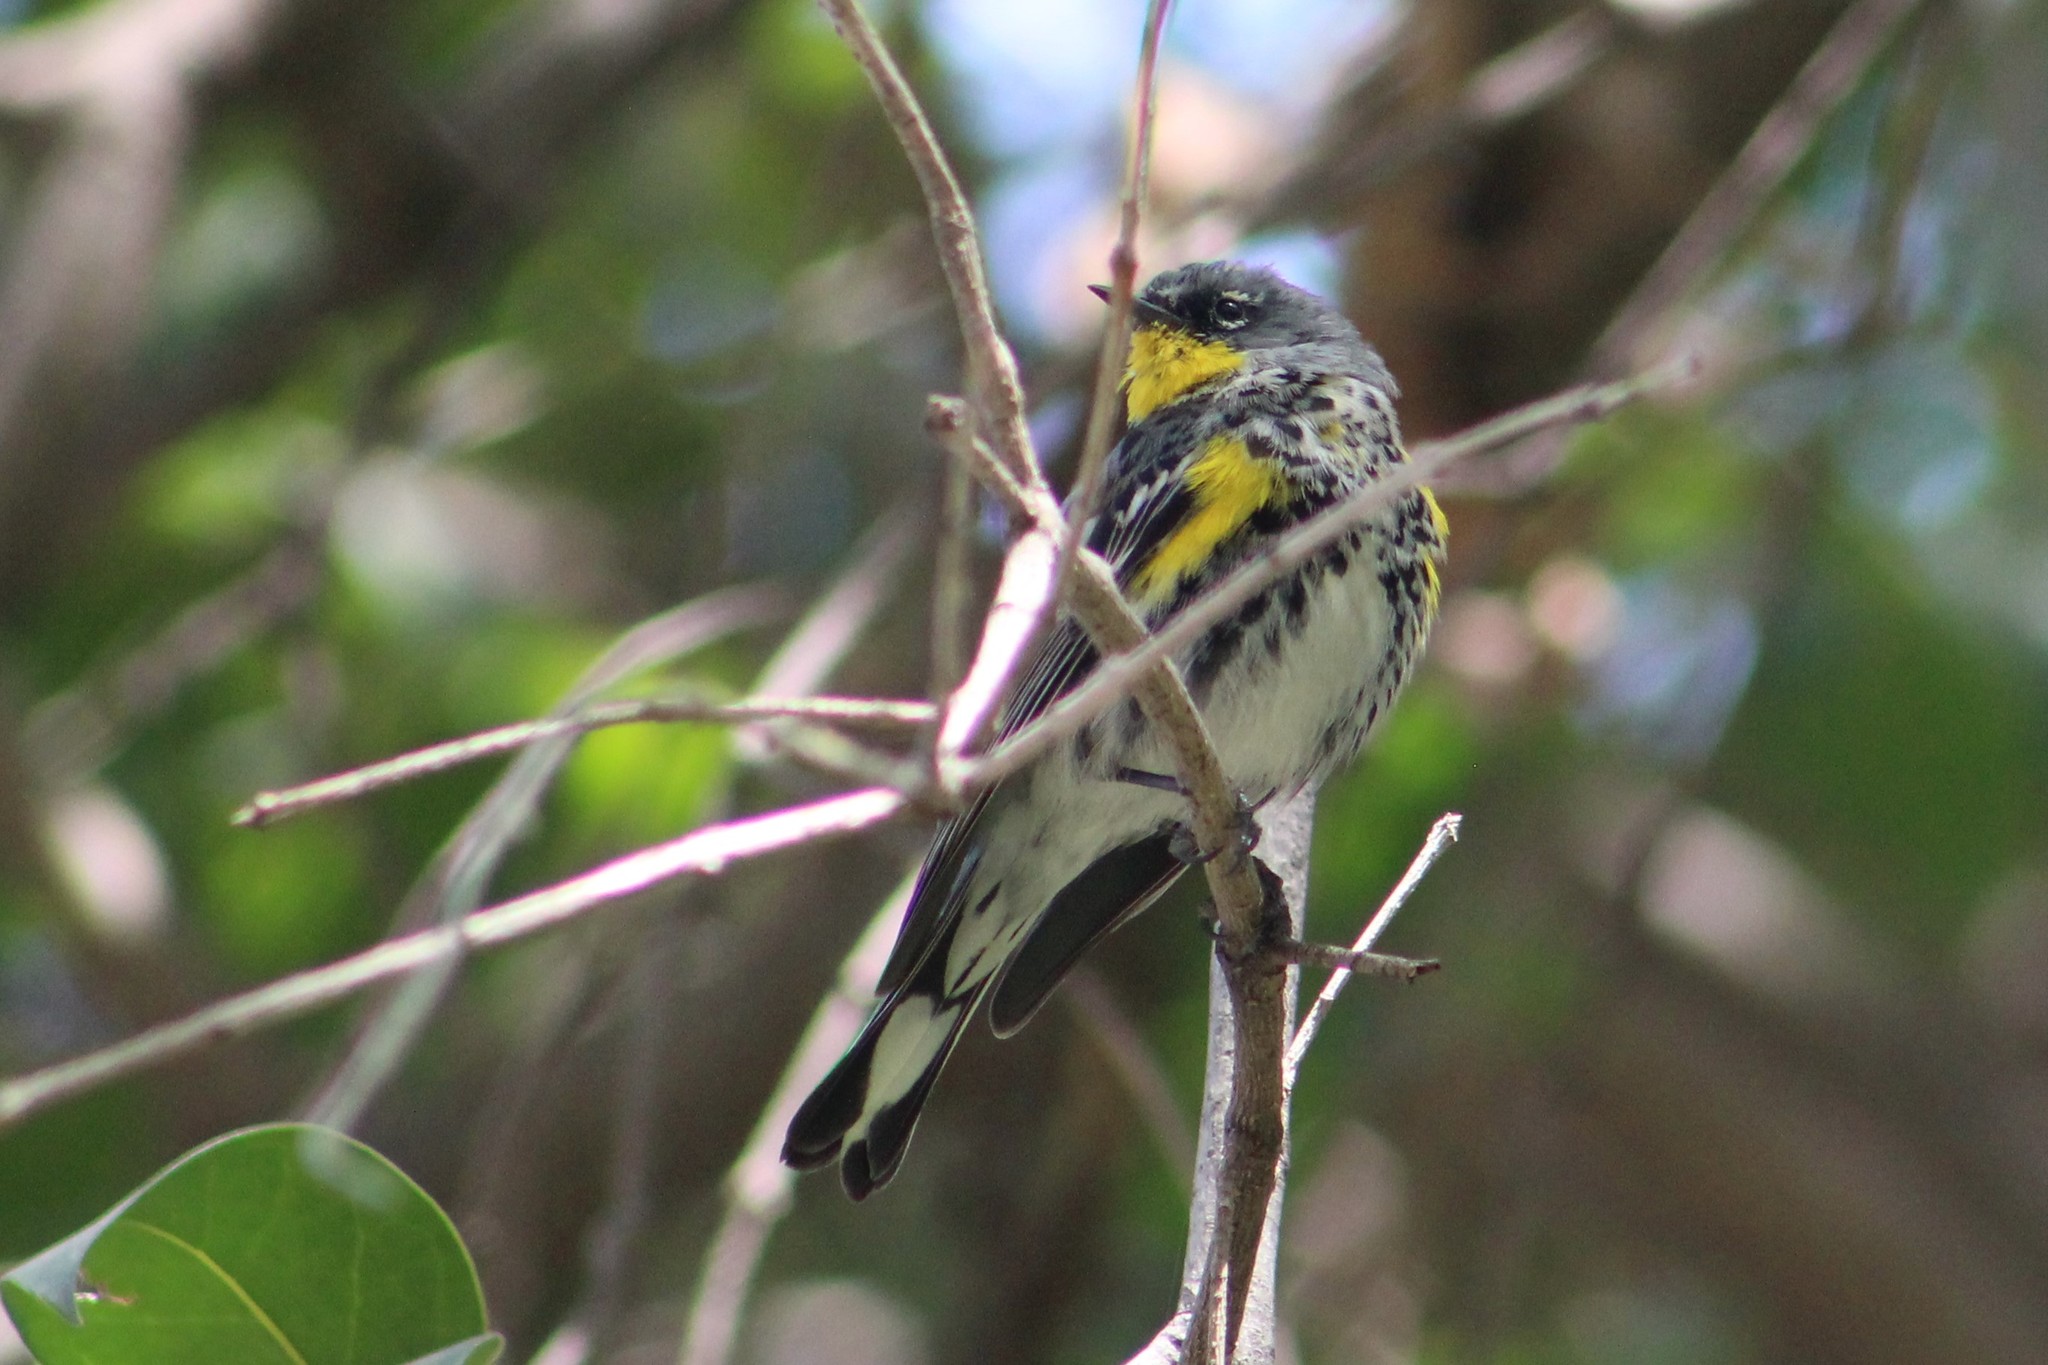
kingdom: Animalia
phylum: Chordata
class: Aves
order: Passeriformes
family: Parulidae
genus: Setophaga
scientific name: Setophaga auduboni
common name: Audubon's warbler
